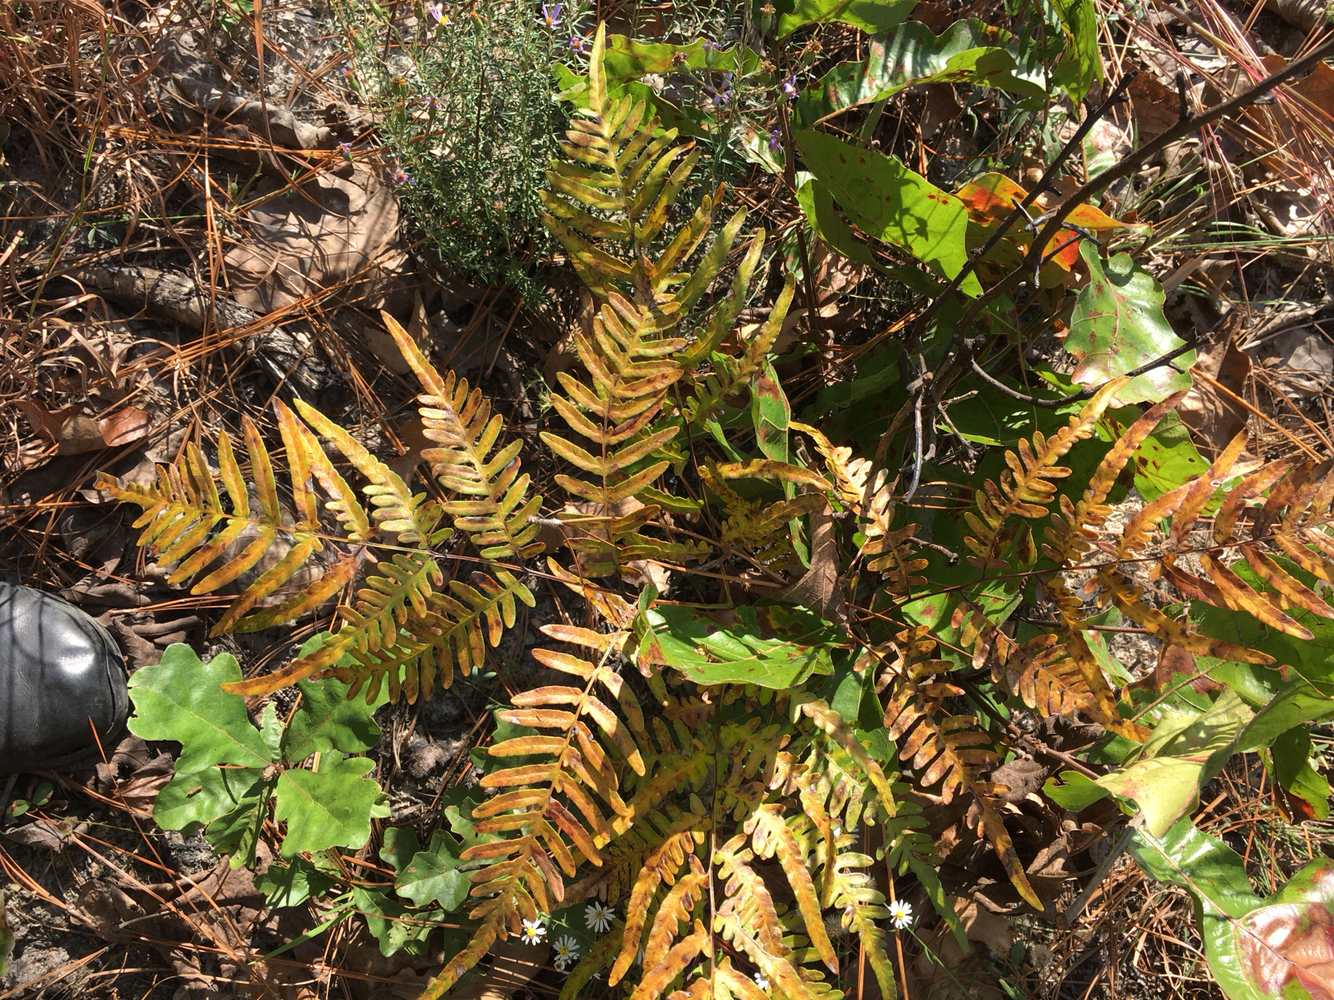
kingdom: Plantae
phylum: Tracheophyta
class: Polypodiopsida
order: Polypodiales
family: Dennstaedtiaceae
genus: Pteridium
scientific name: Pteridium
